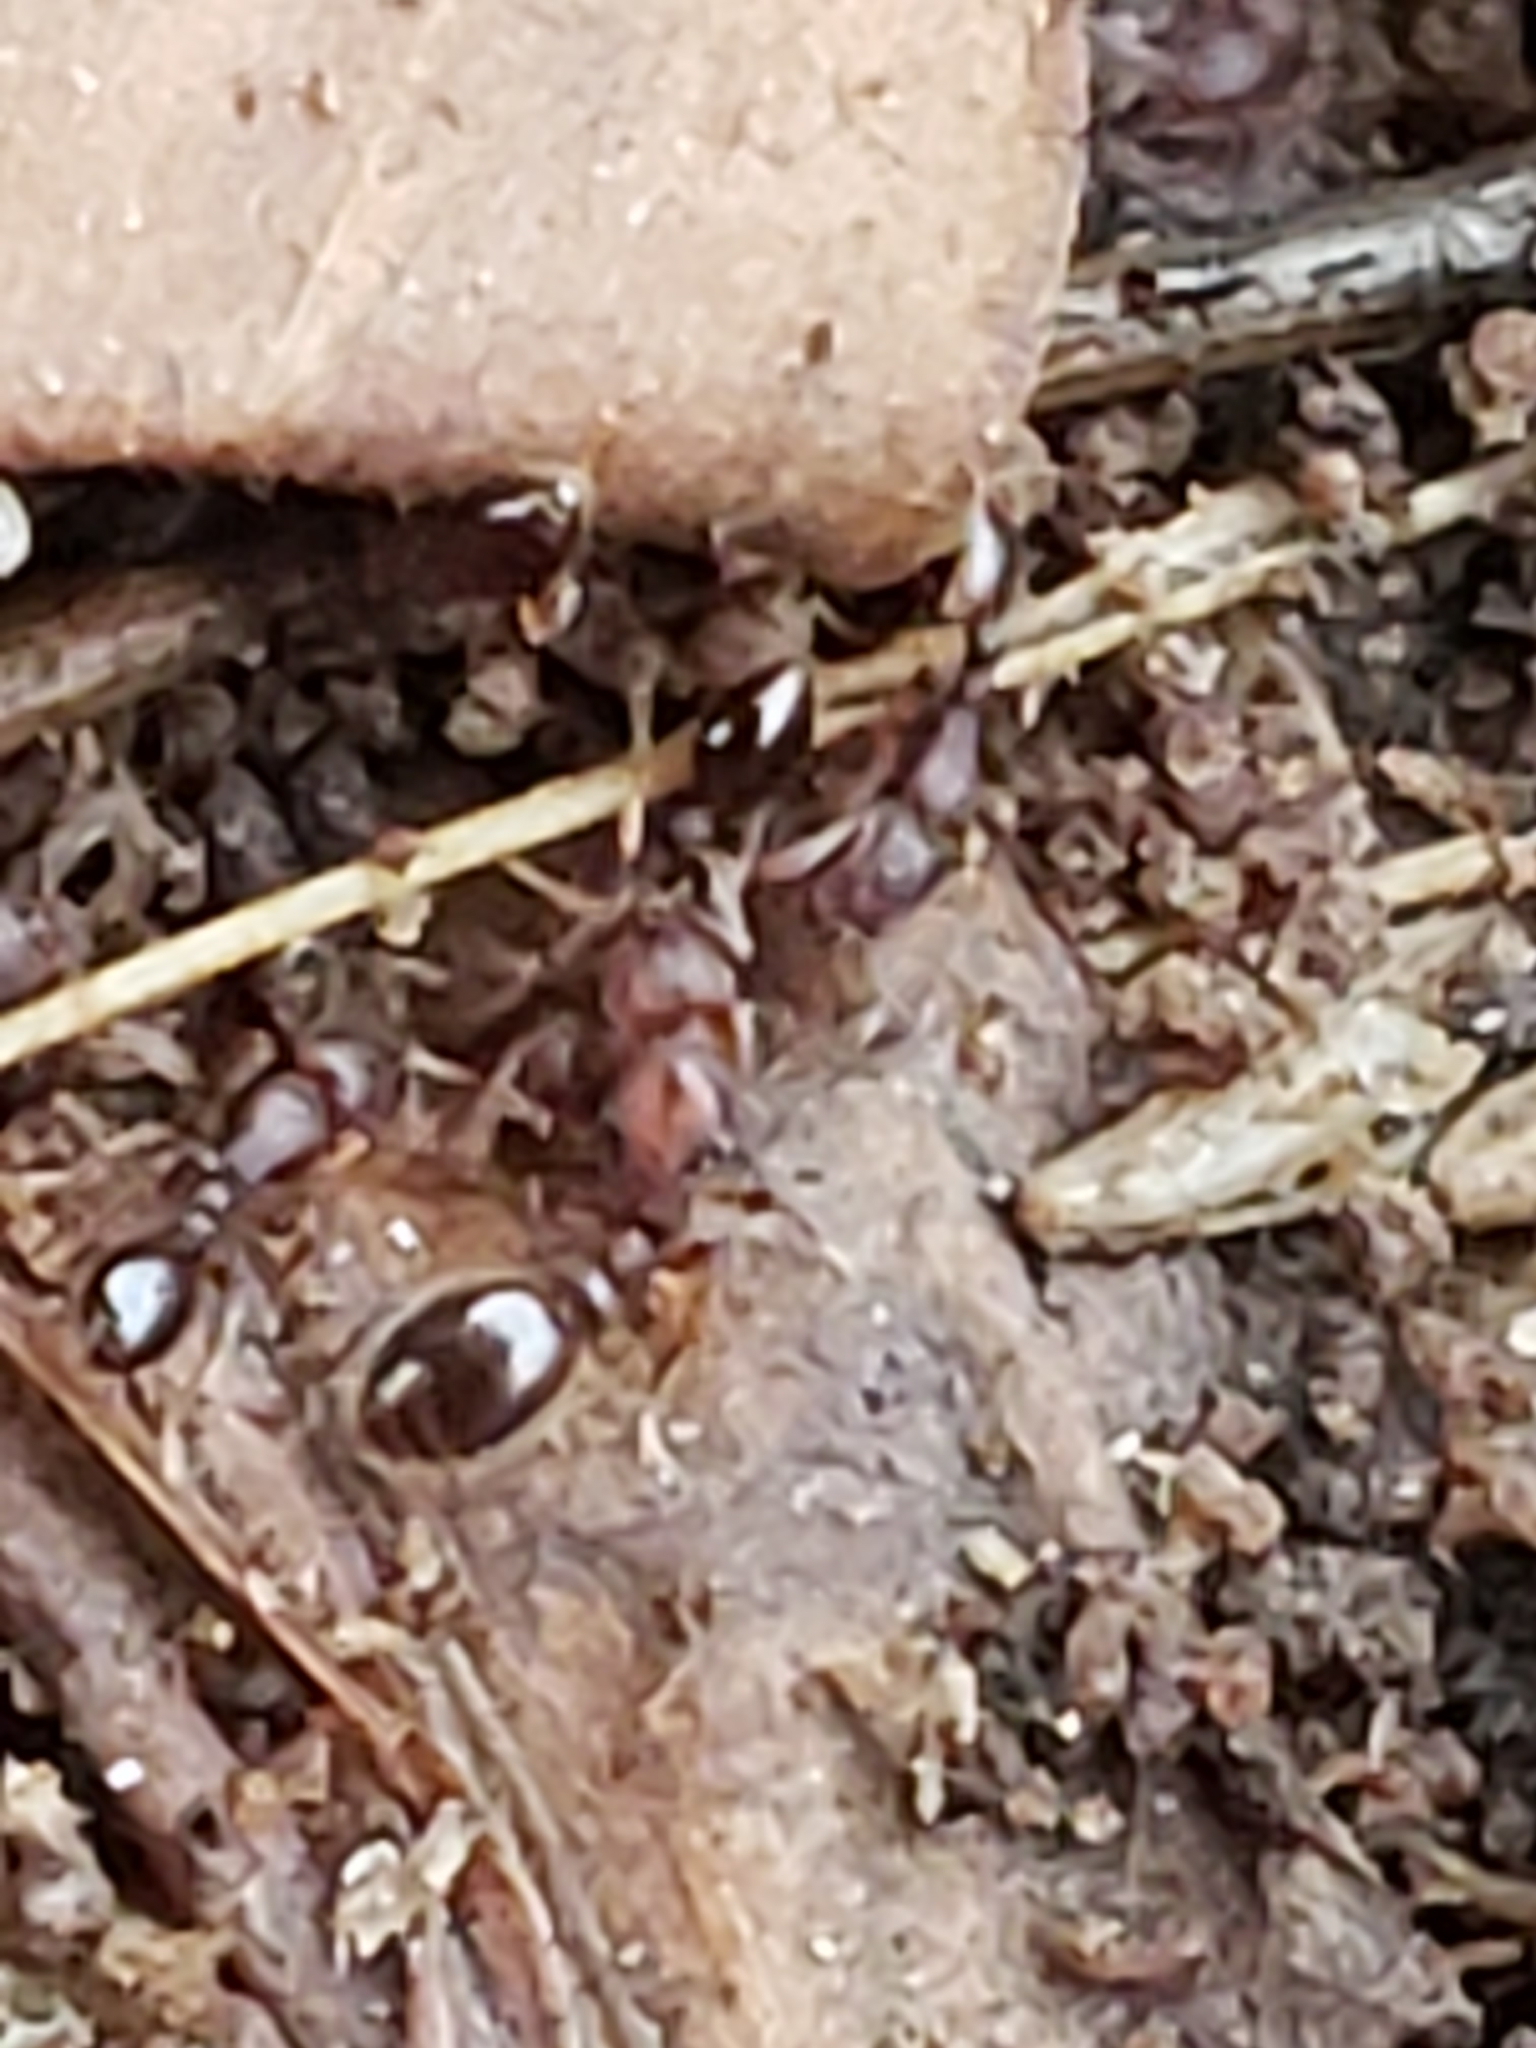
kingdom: Animalia
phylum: Arthropoda
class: Insecta
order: Hymenoptera
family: Formicidae
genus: Vollenhovia
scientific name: Vollenhovia emeryi
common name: Ant
